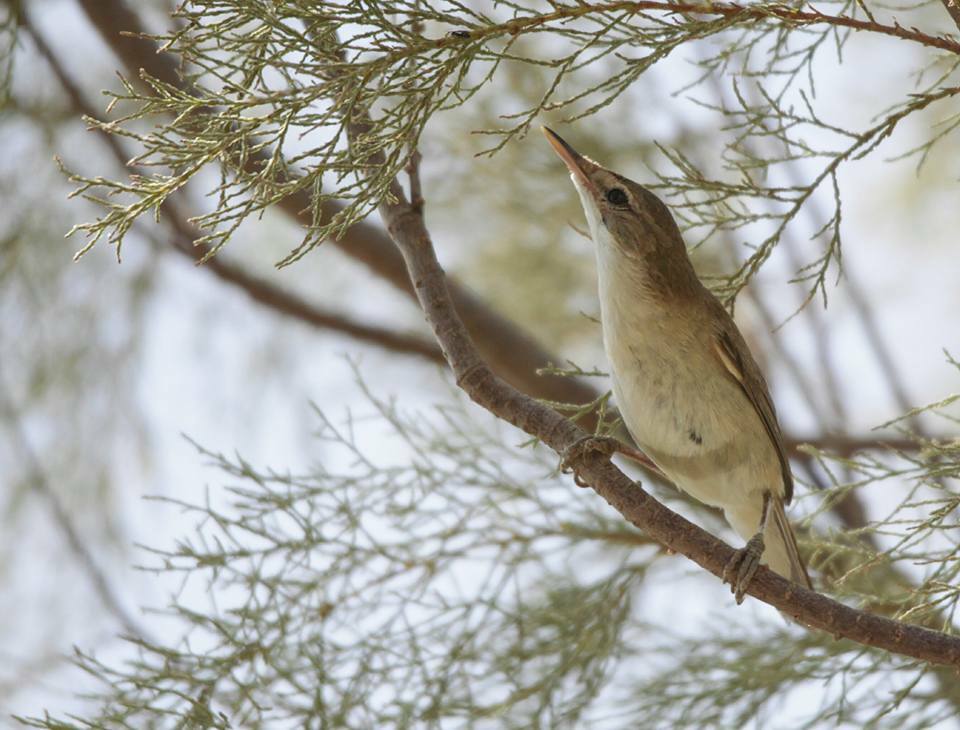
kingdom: Animalia
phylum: Chordata
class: Aves
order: Passeriformes
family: Acrocephalidae
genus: Iduna
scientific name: Iduna pallida
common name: Eastern olivaceous warbler
